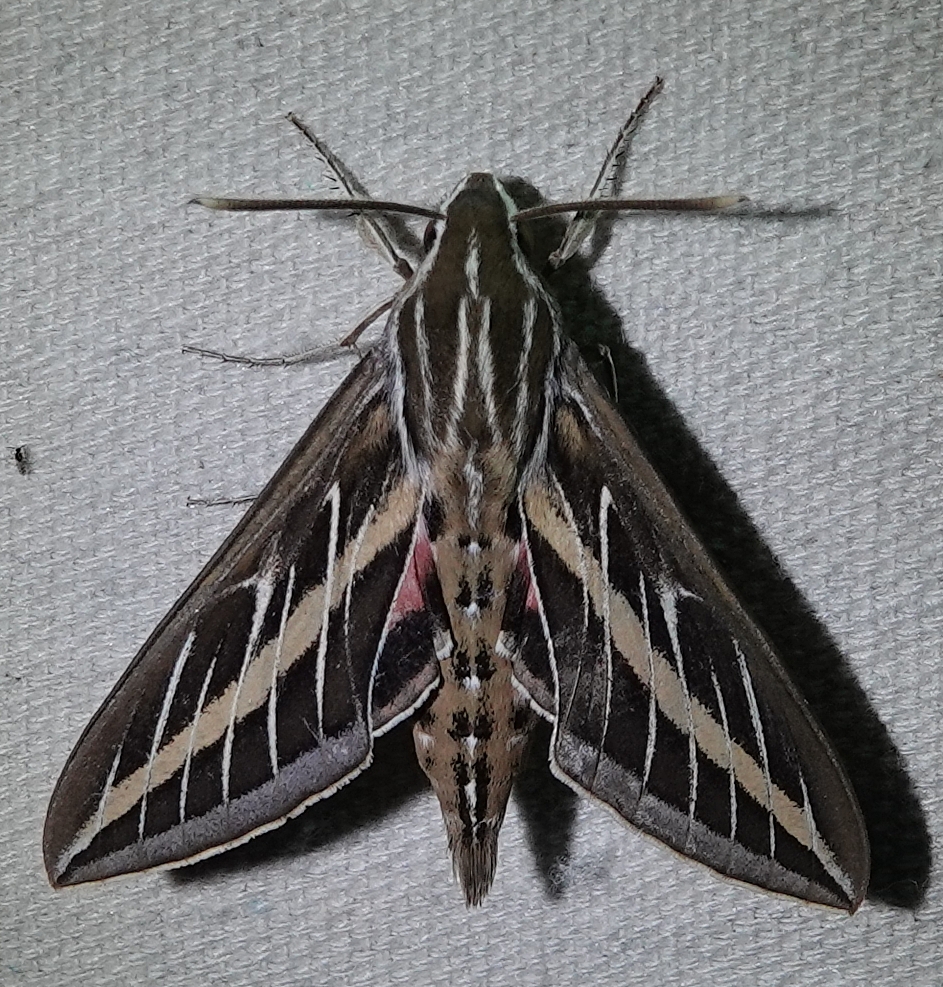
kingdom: Animalia
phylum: Arthropoda
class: Insecta
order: Lepidoptera
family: Sphingidae
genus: Hyles
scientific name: Hyles lineata
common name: White-lined sphinx
